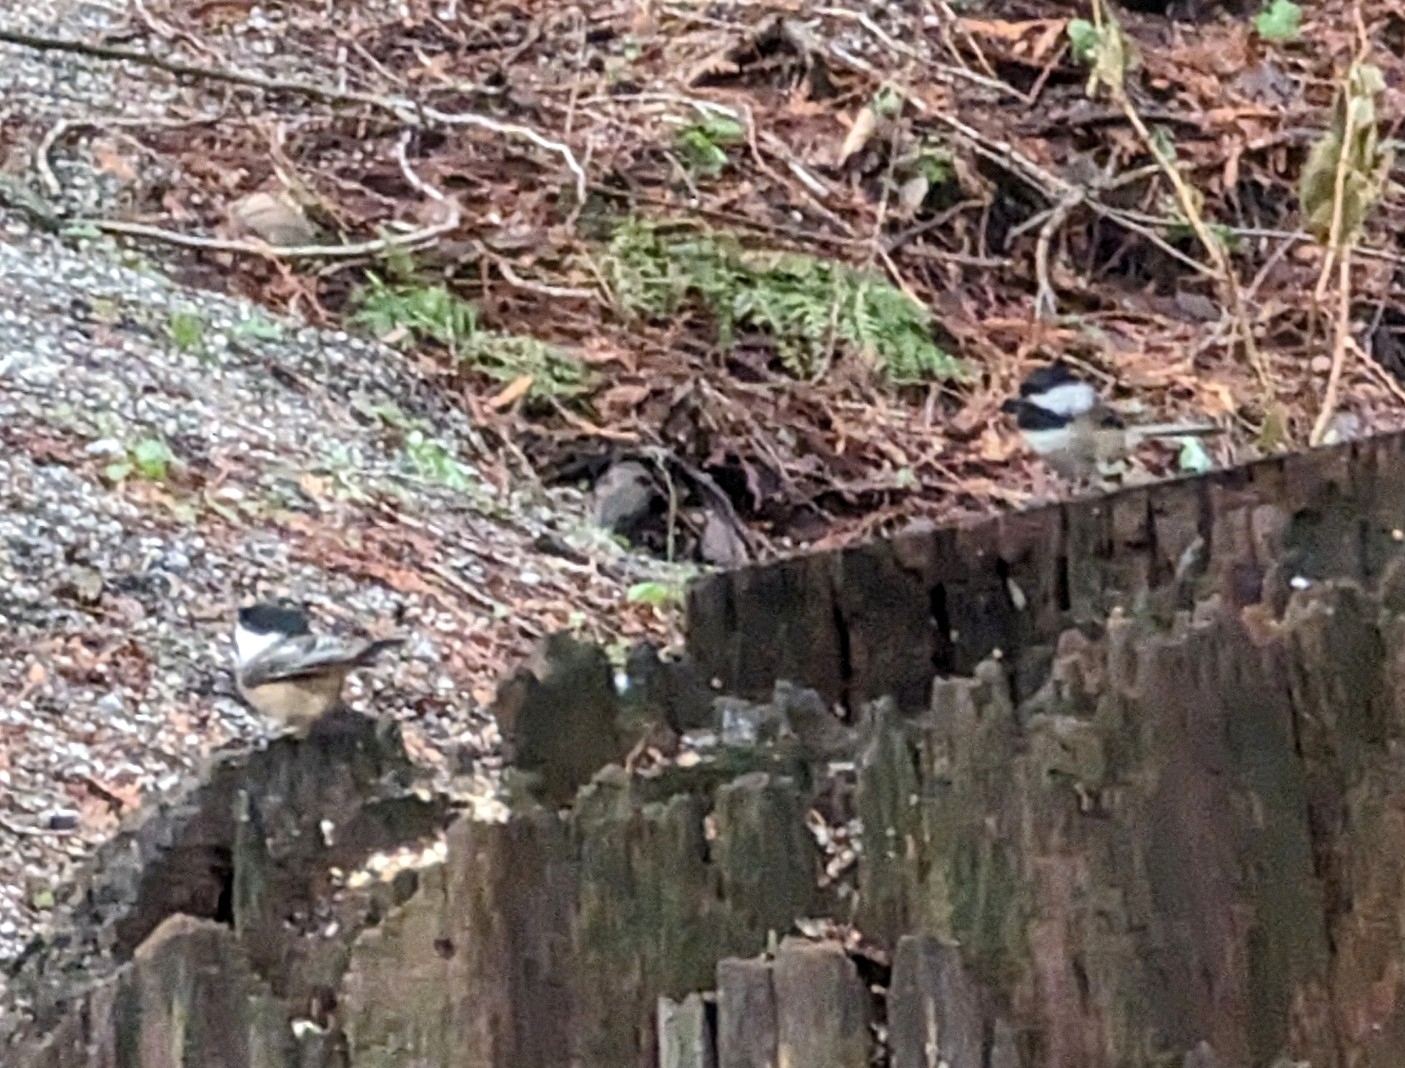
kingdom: Animalia
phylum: Chordata
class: Aves
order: Passeriformes
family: Paridae
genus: Poecile
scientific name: Poecile atricapillus
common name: Black-capped chickadee
